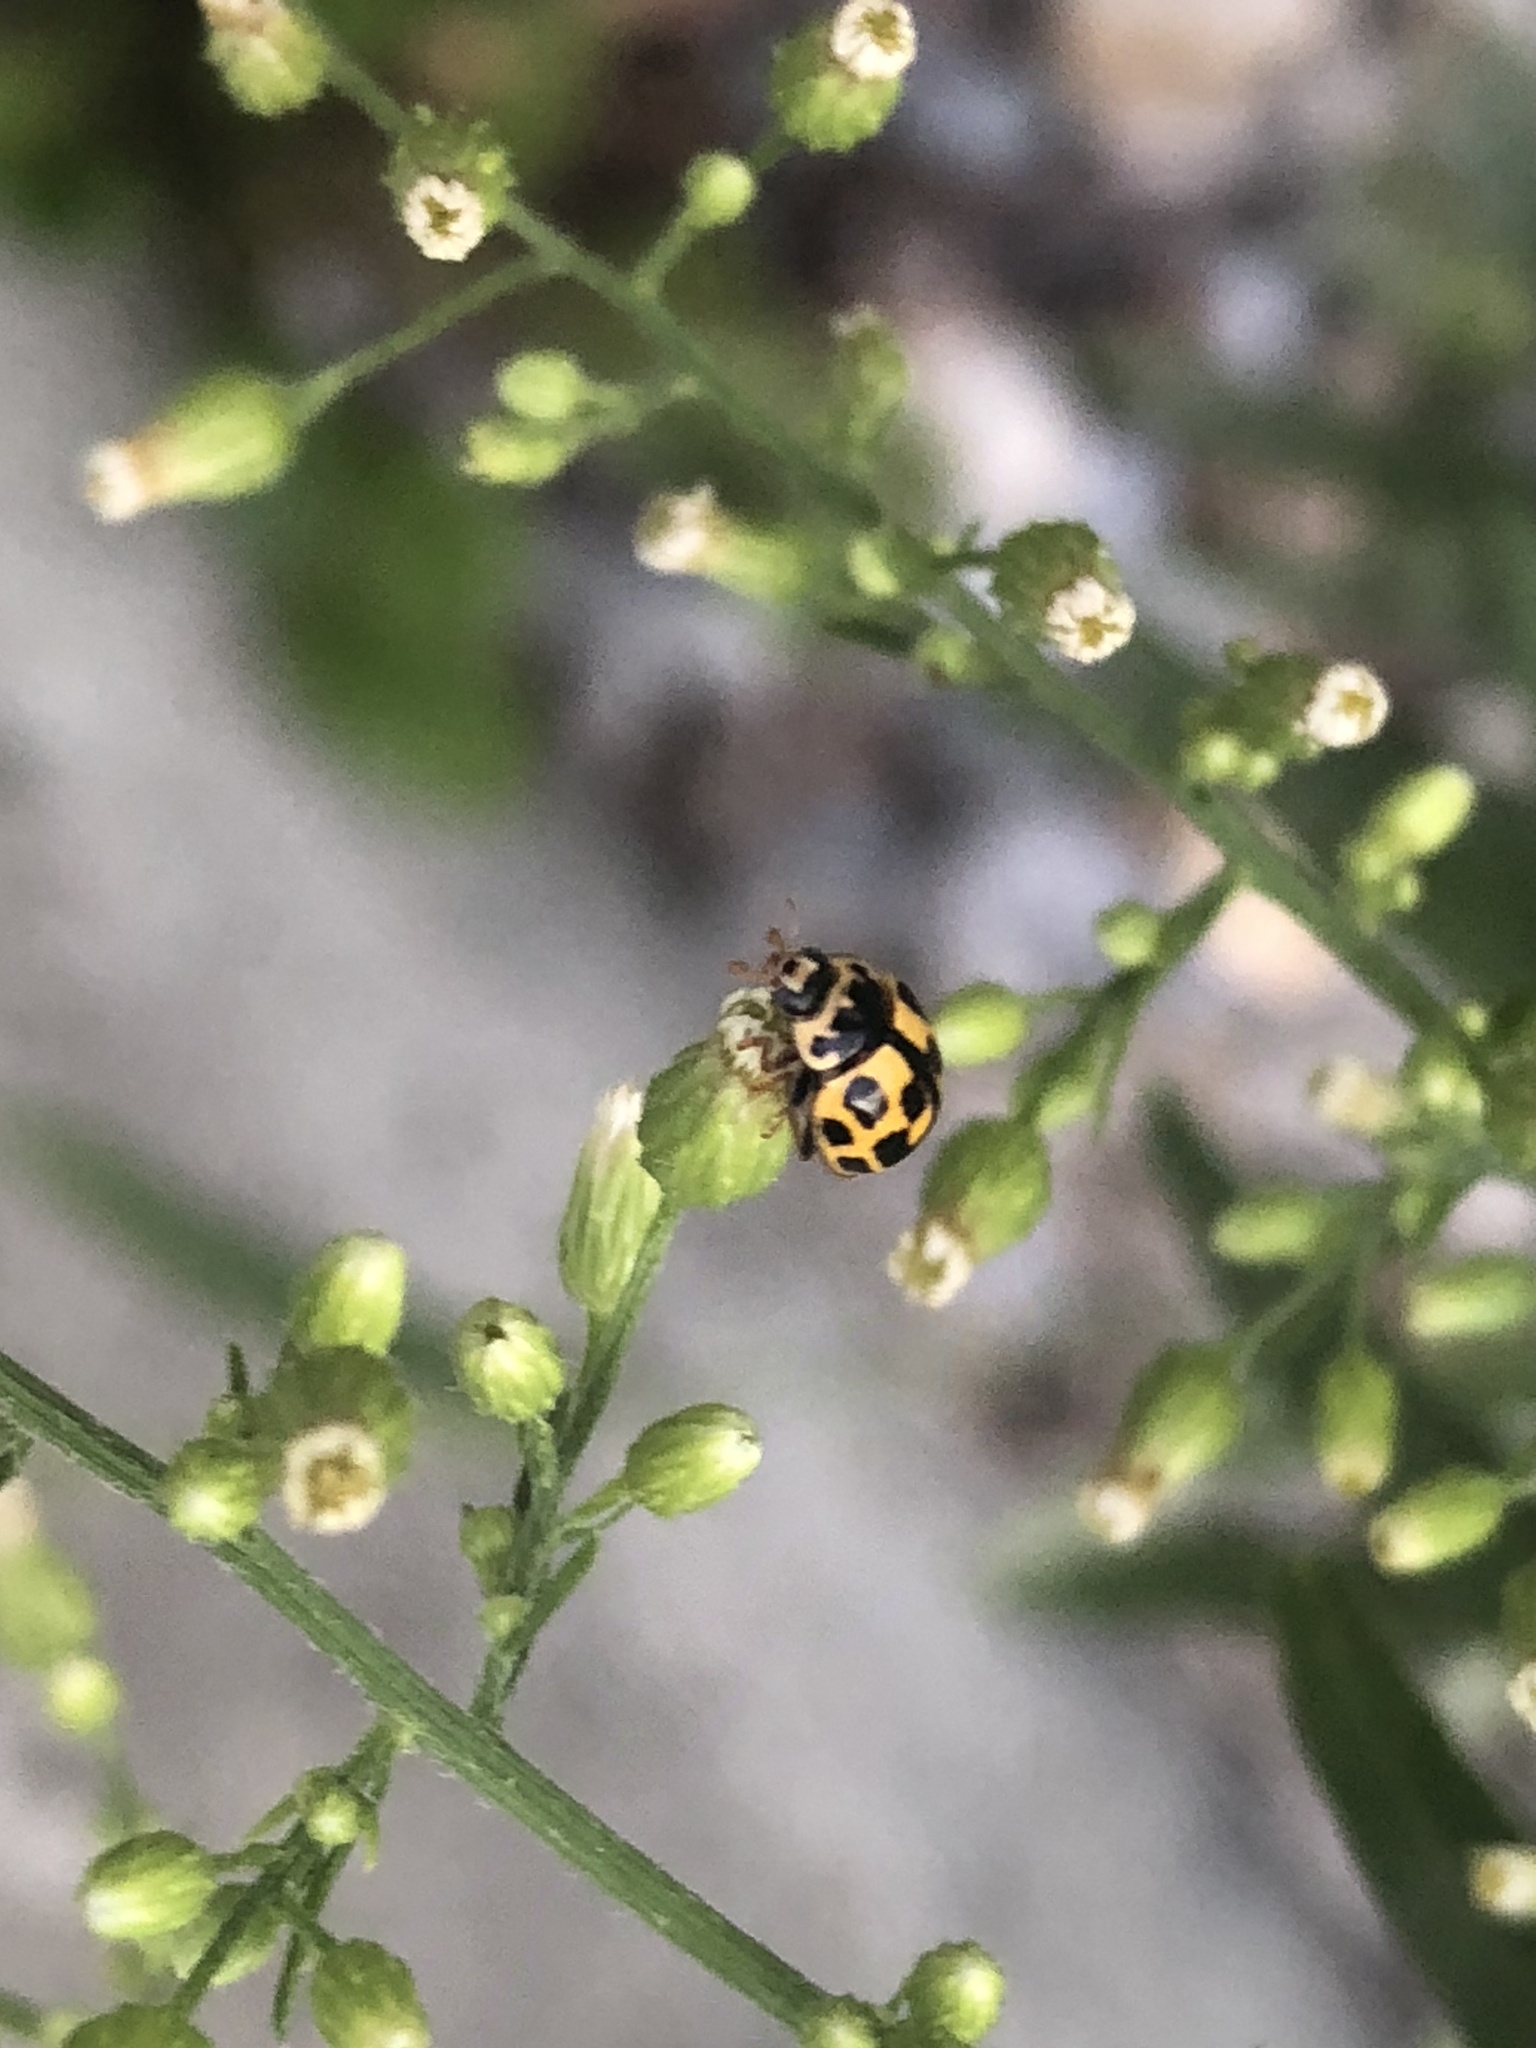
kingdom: Animalia
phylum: Arthropoda
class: Insecta
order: Coleoptera
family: Coccinellidae
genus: Propylaea
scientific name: Propylaea quatuordecimpunctata
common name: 14-spotted ladybird beetle
